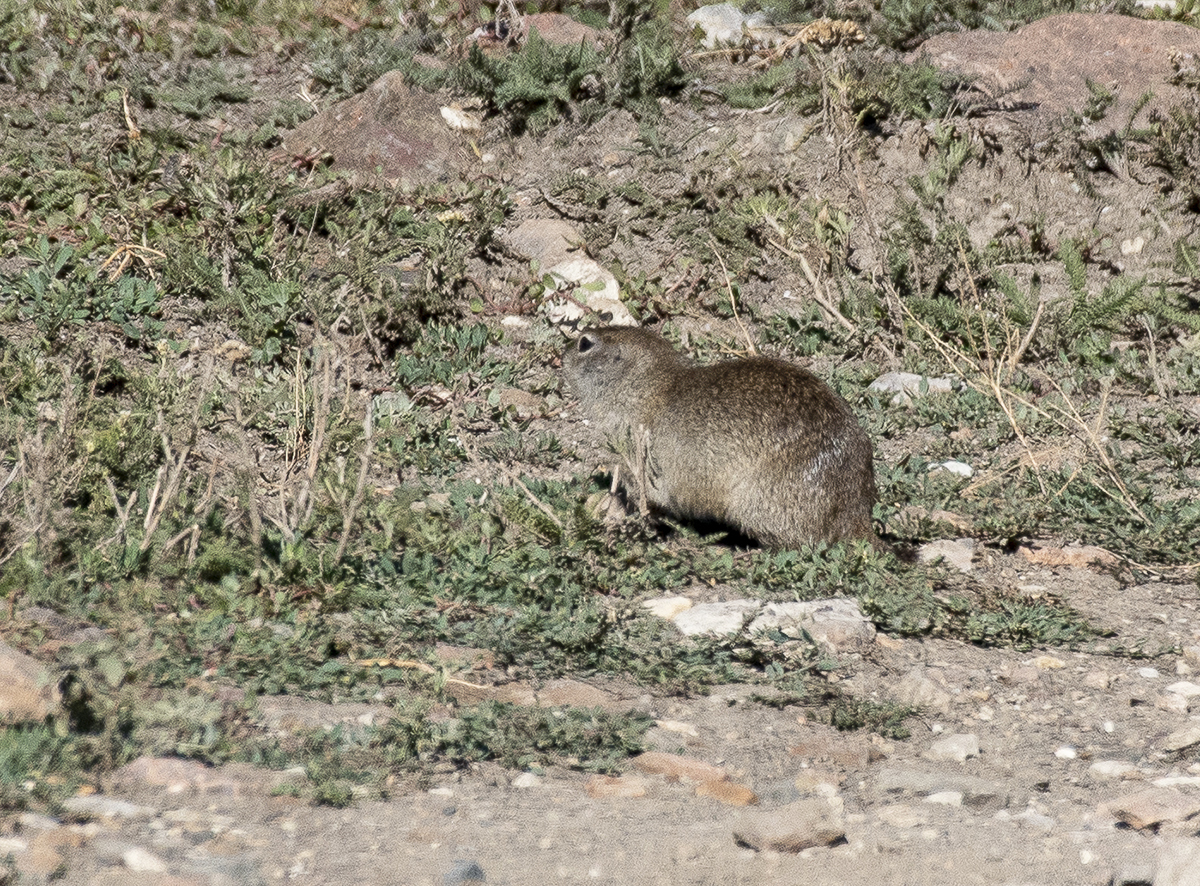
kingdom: Animalia
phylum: Chordata
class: Mammalia
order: Rodentia
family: Sciuridae
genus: Spermophilus
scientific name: Spermophilus musicus
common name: Caucasian mountain ground squirrel
